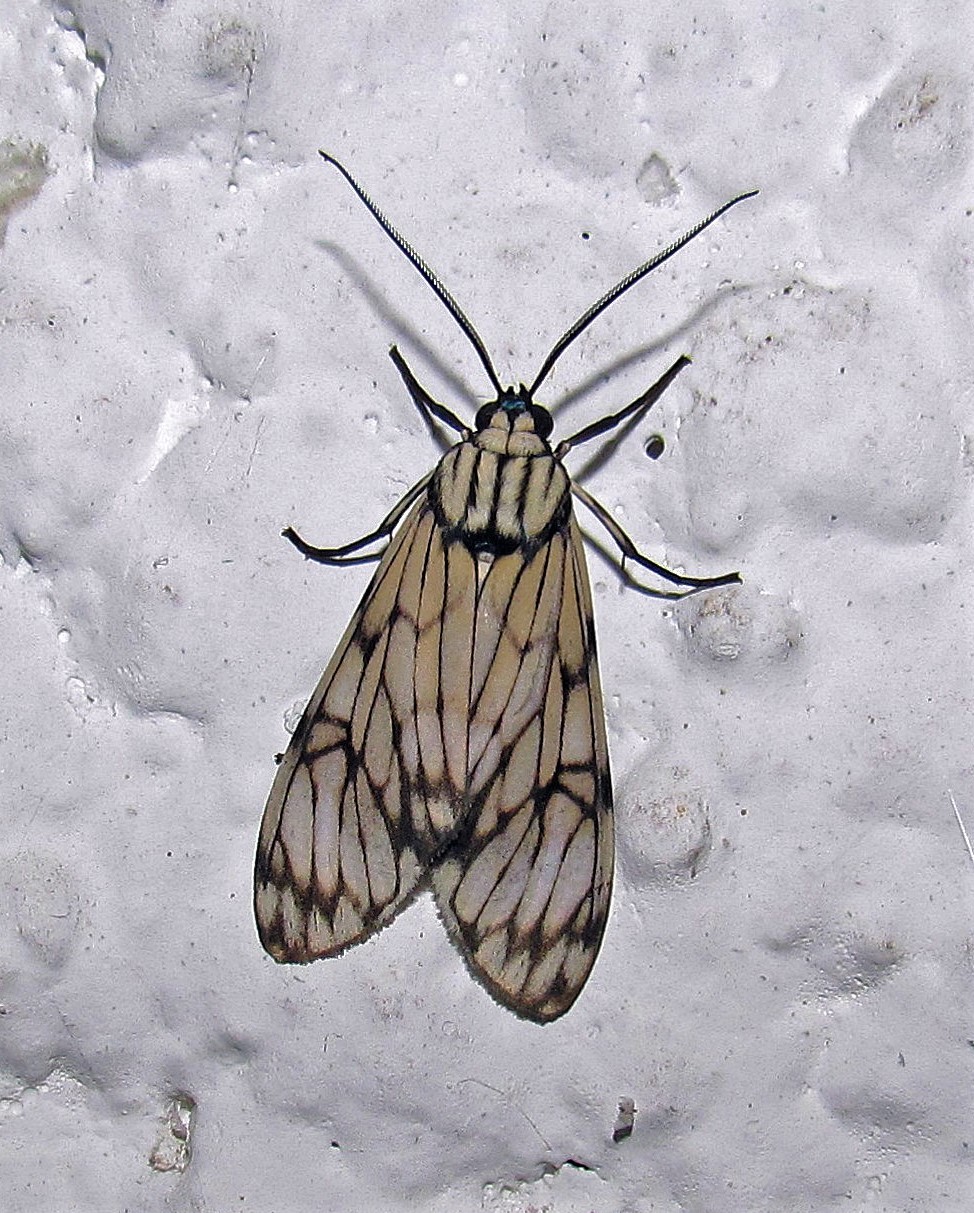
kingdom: Animalia
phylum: Arthropoda
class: Insecta
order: Lepidoptera
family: Erebidae
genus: Theages
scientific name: Theages hoffmani
